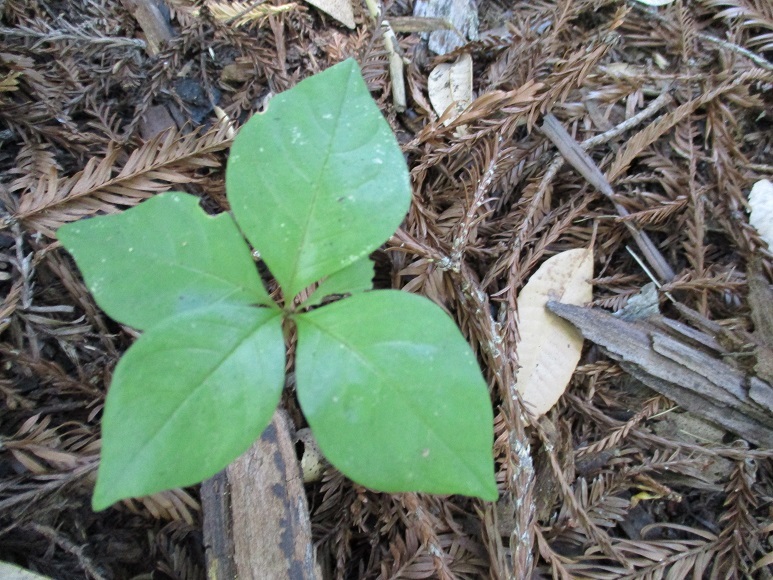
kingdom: Plantae
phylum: Tracheophyta
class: Magnoliopsida
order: Ericales
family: Primulaceae
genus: Lysimachia
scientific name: Lysimachia latifolia
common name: Pacific starflower
